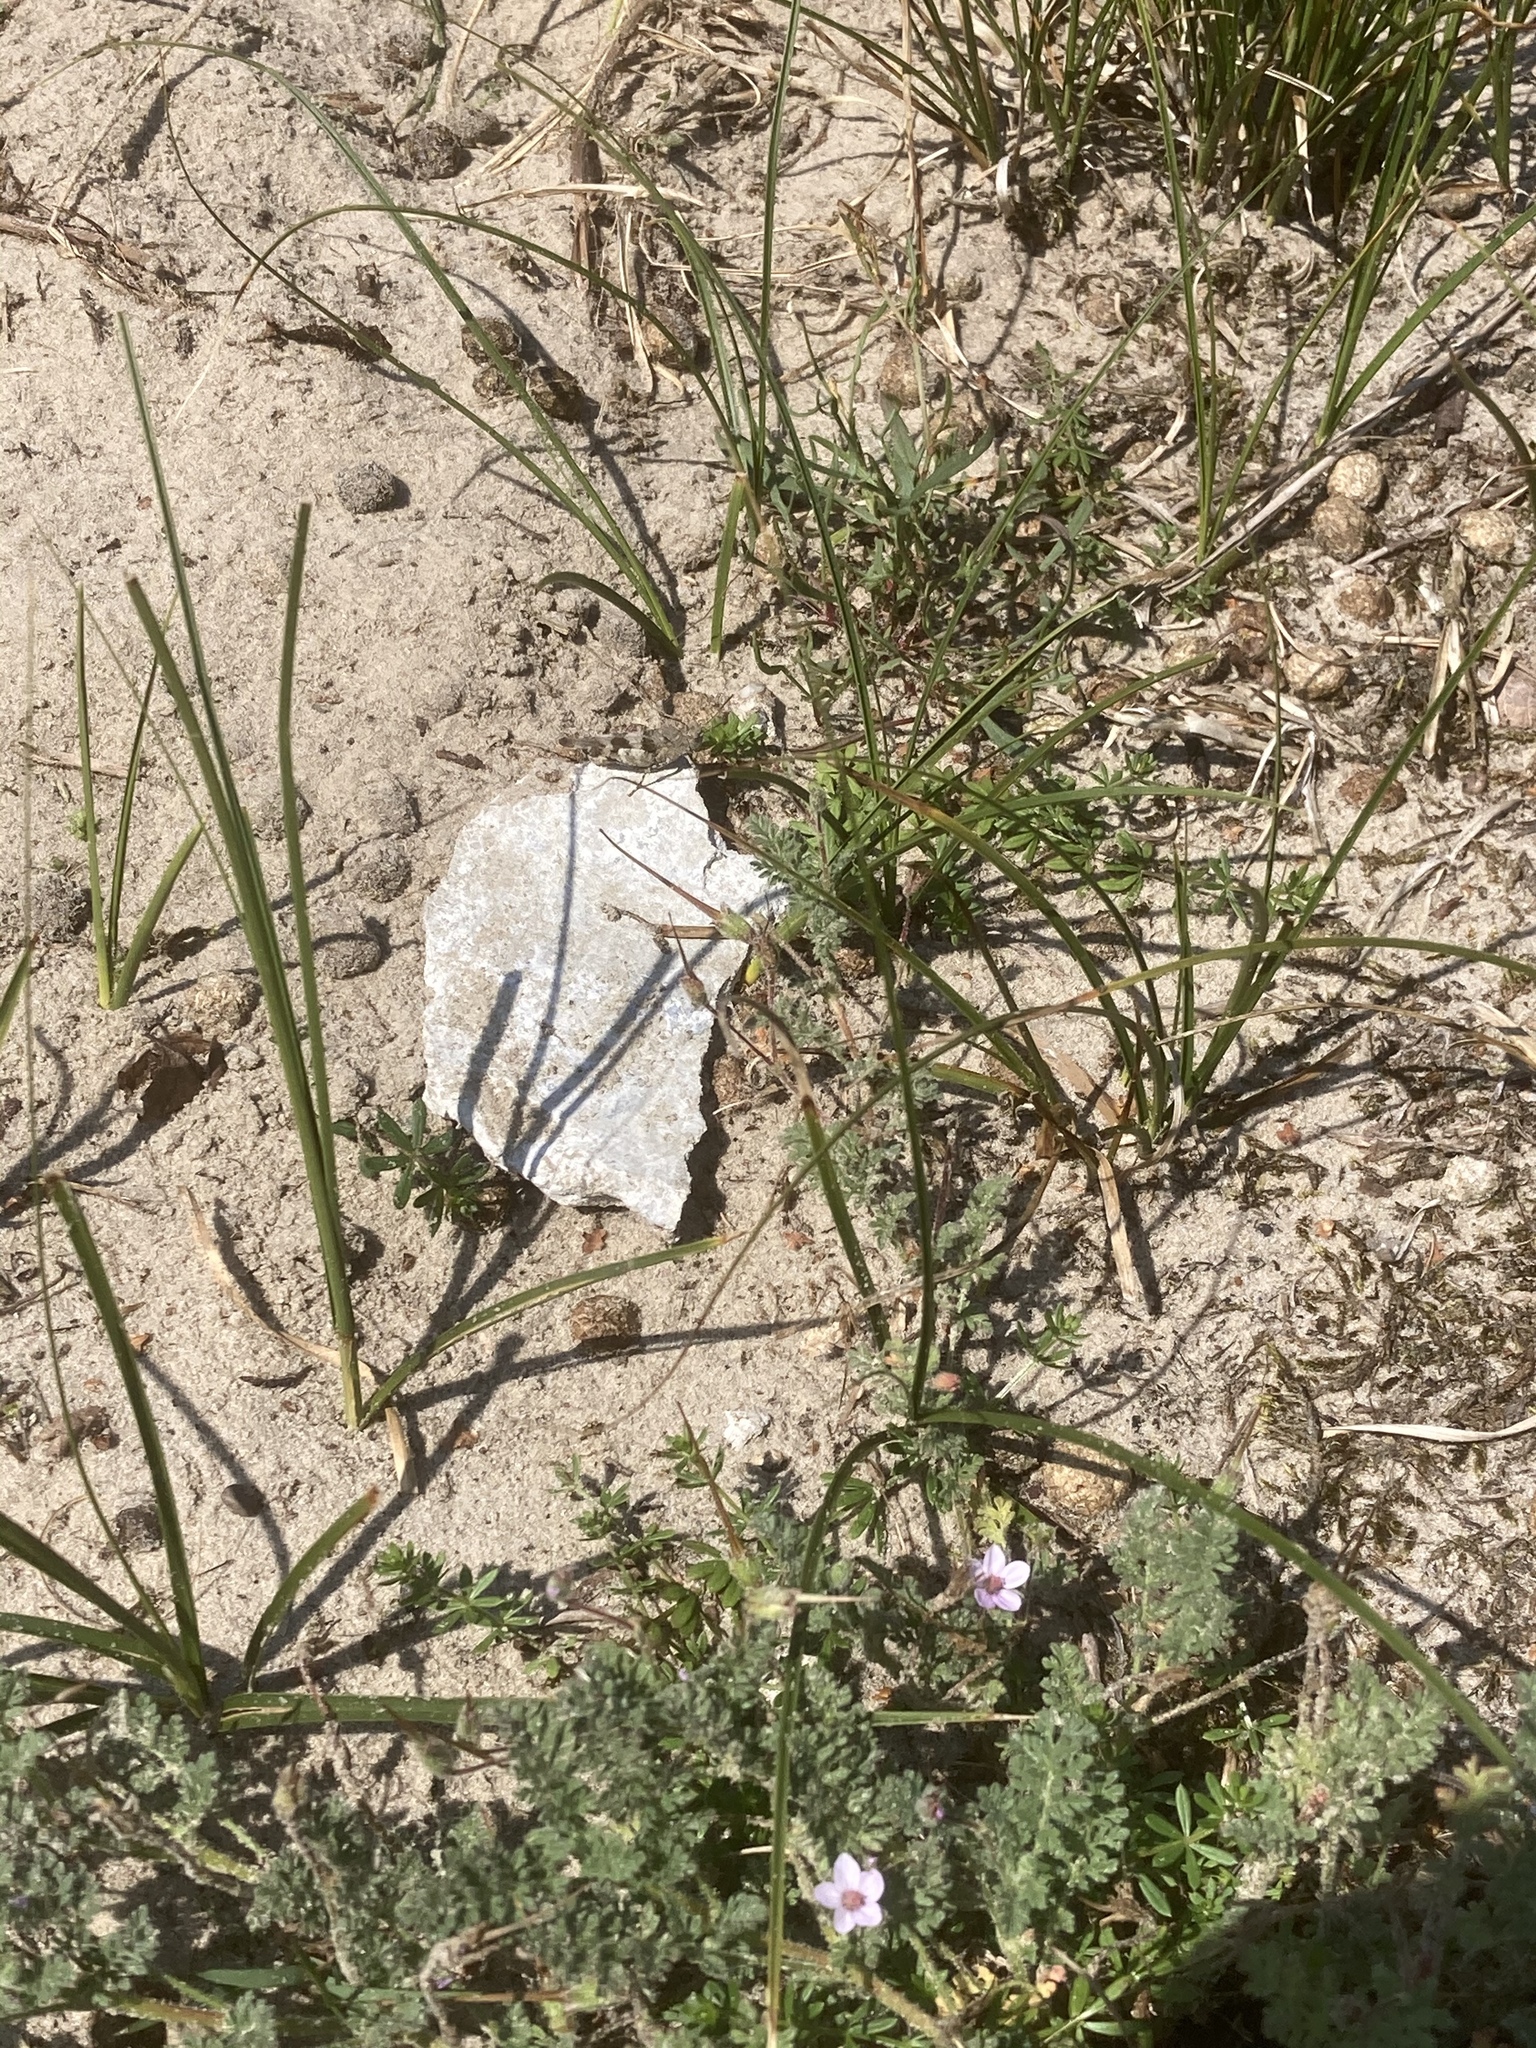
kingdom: Animalia
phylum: Arthropoda
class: Insecta
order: Orthoptera
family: Acrididae
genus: Oedipoda
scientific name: Oedipoda caerulescens
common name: Blue-winged grasshopper
